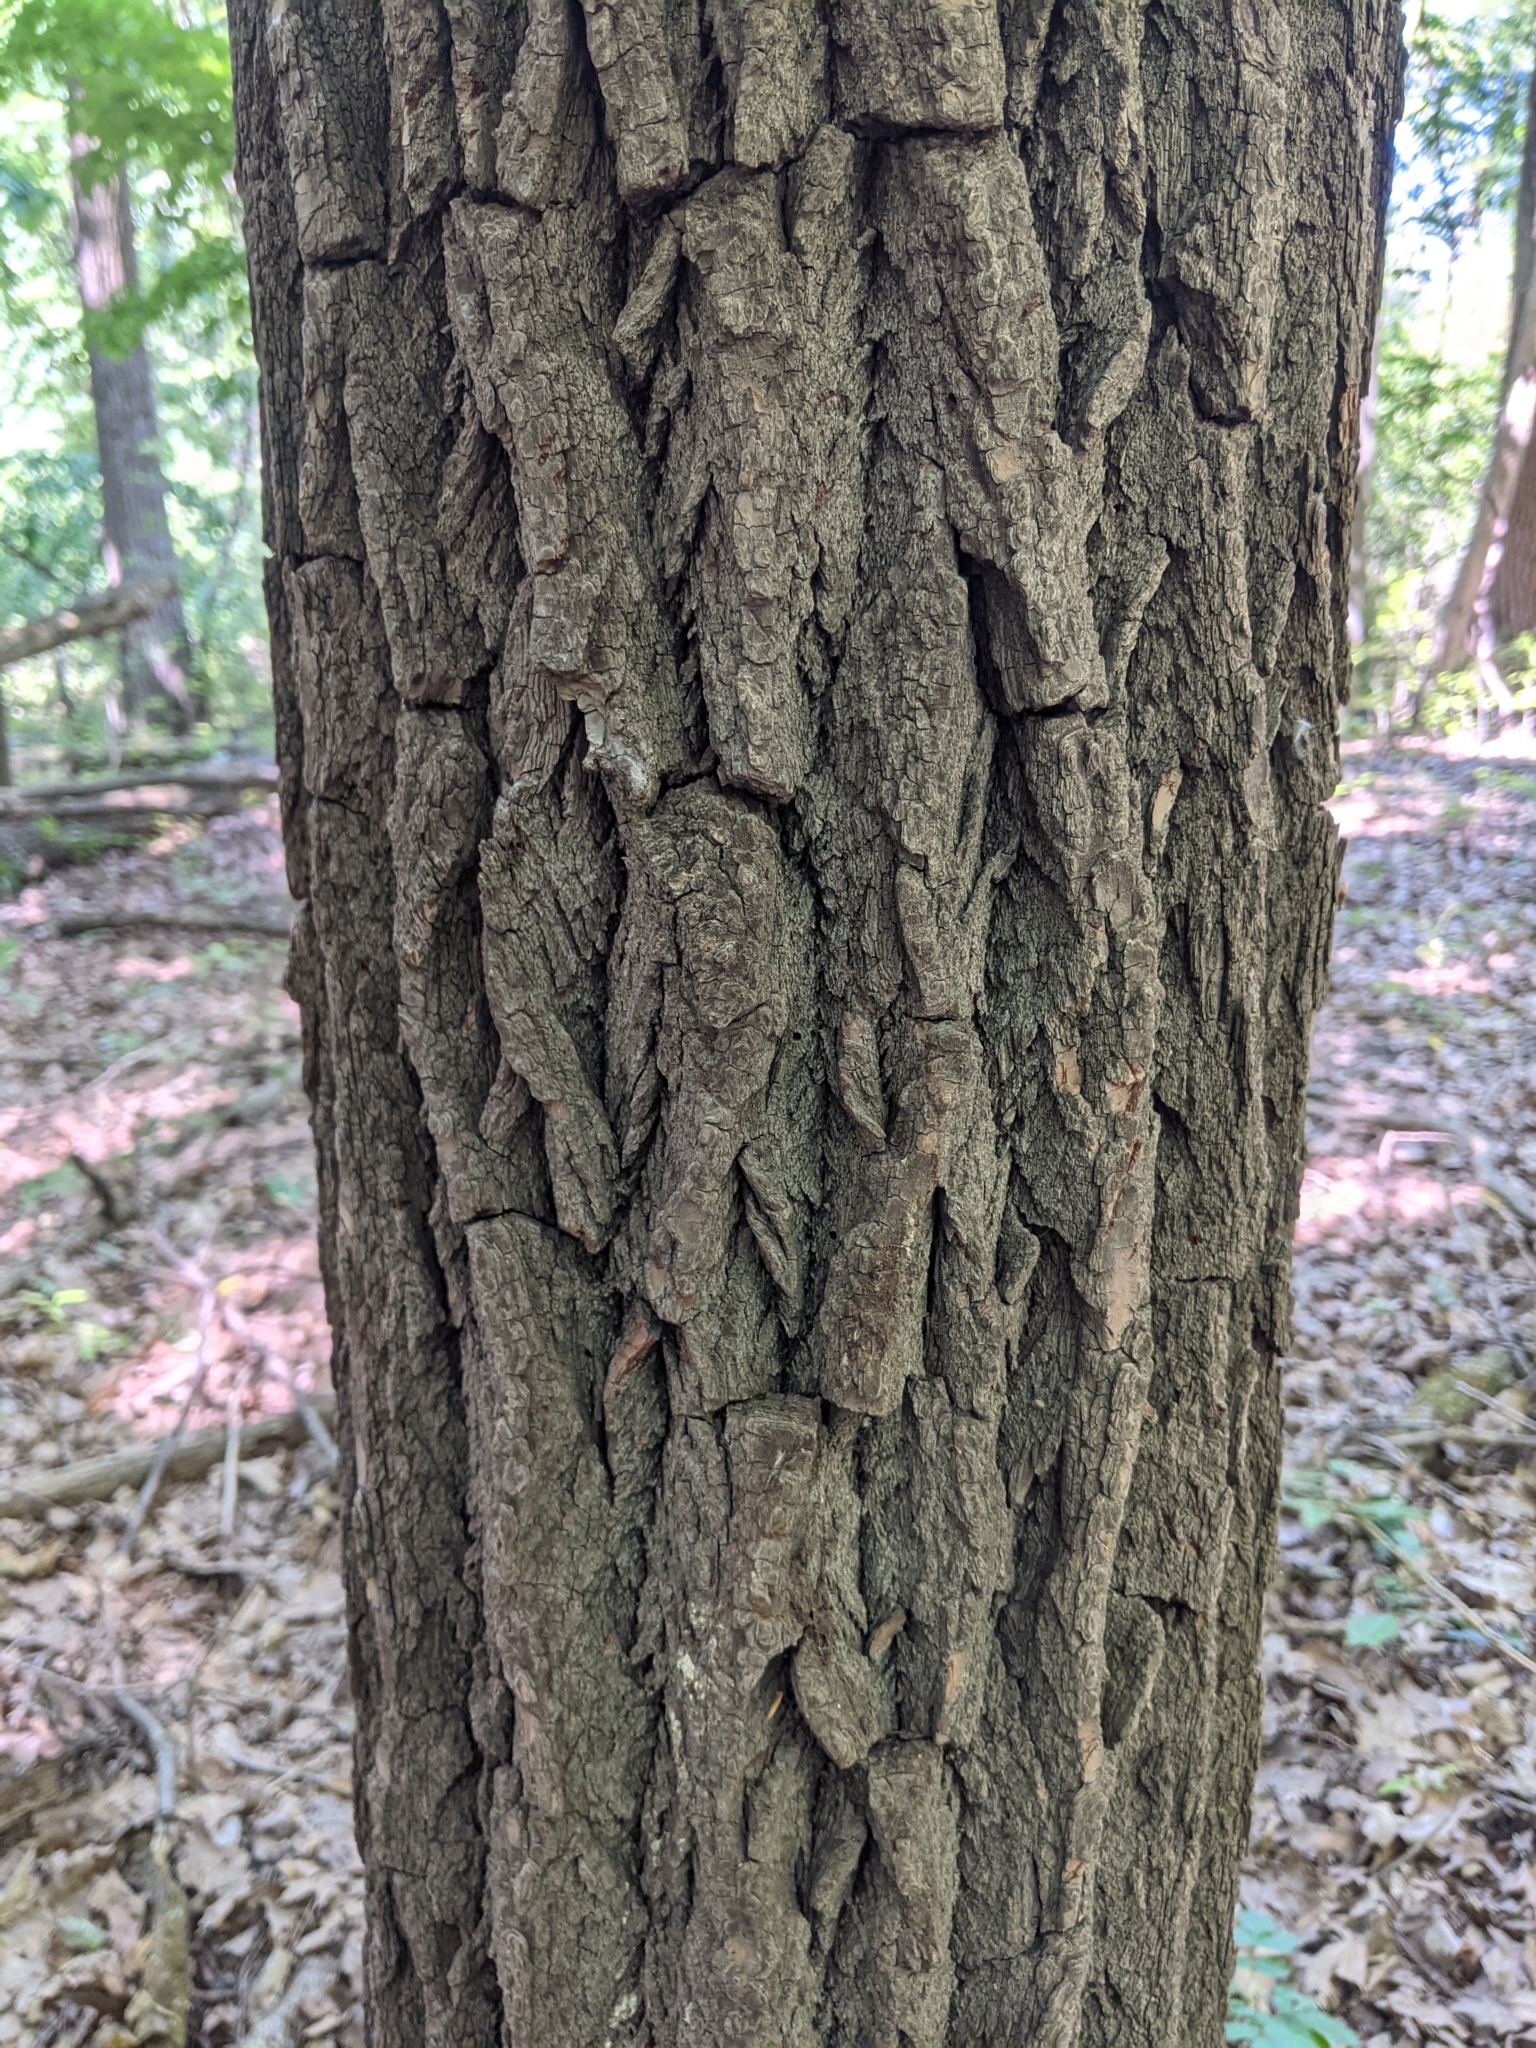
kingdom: Plantae
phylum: Tracheophyta
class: Magnoliopsida
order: Laurales
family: Lauraceae
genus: Sassafras
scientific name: Sassafras albidum
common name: Sassafras
